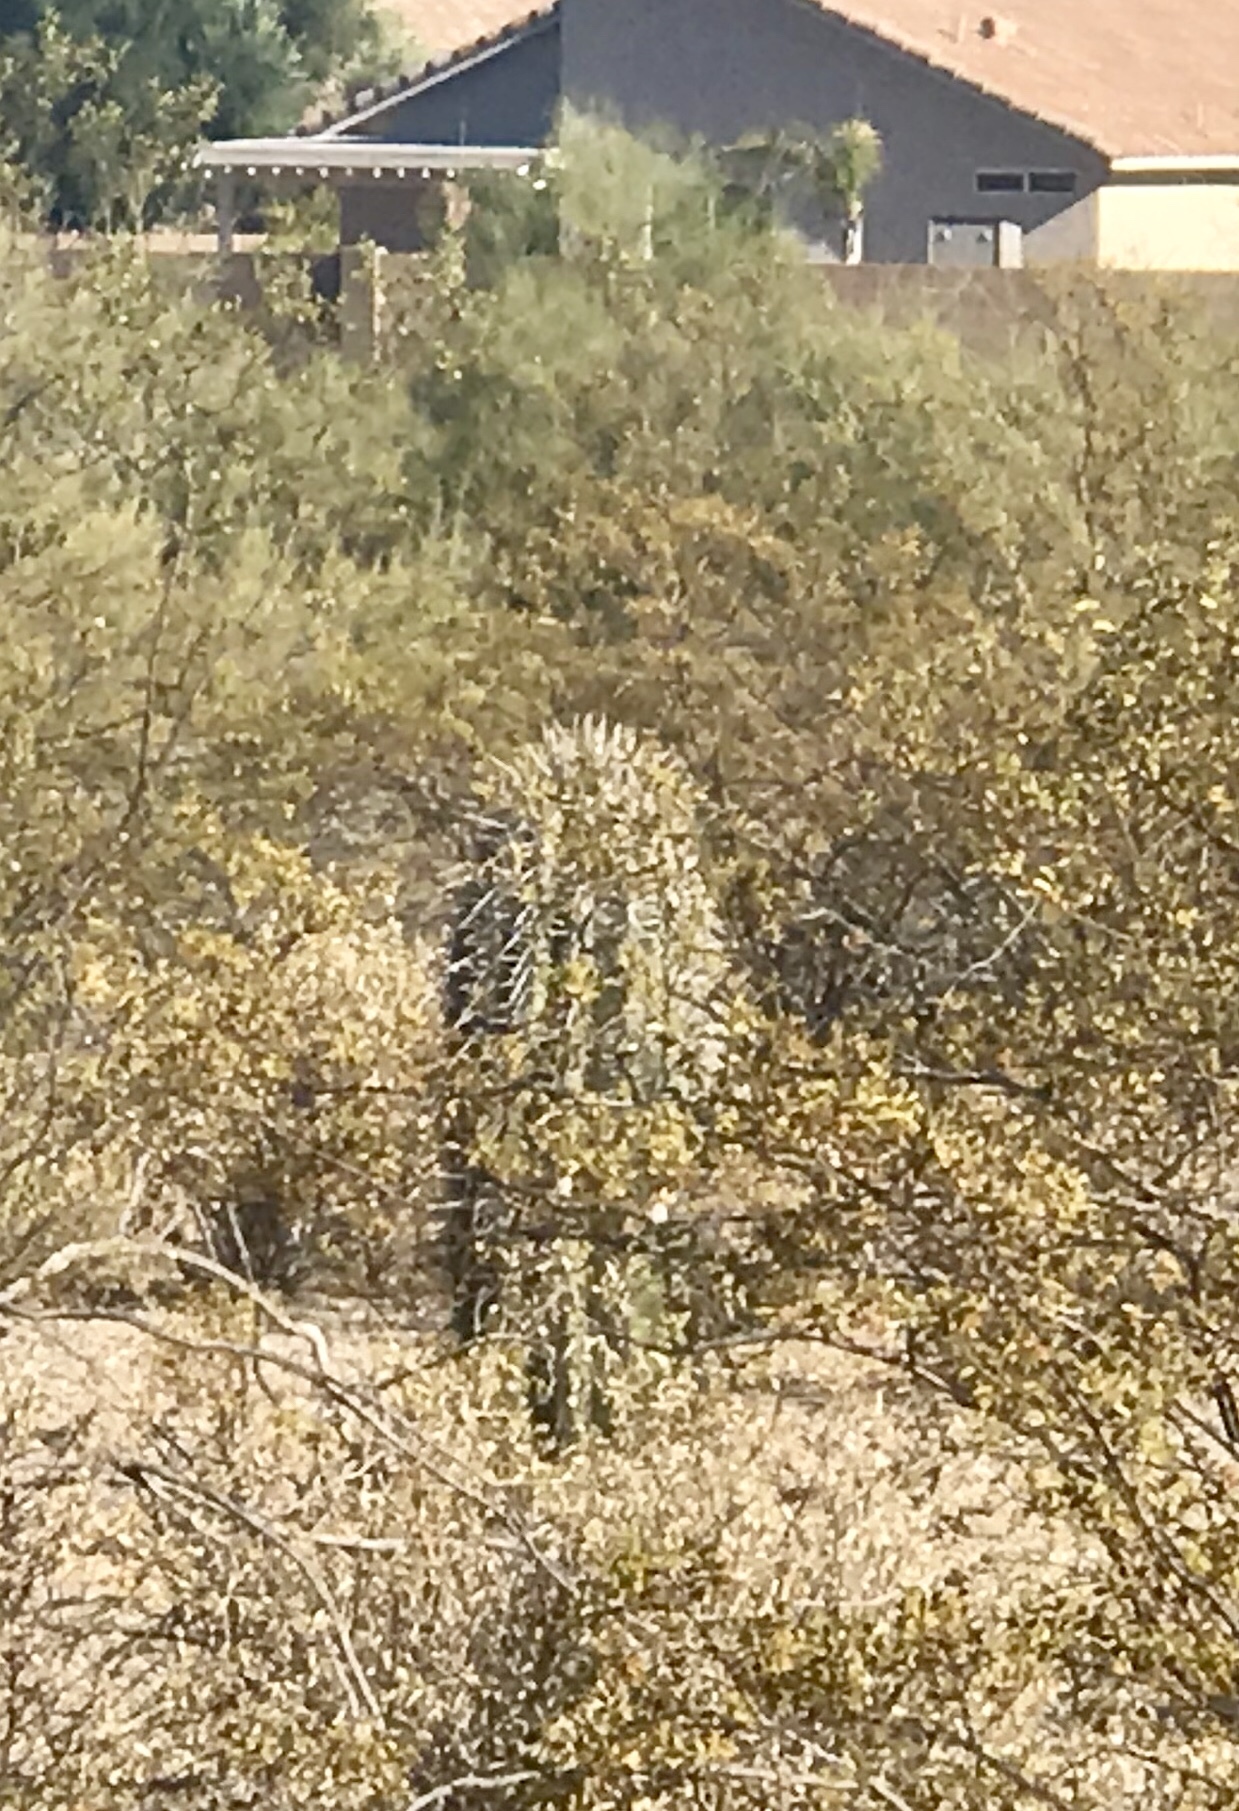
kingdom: Plantae
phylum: Tracheophyta
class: Magnoliopsida
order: Caryophyllales
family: Cactaceae
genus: Carnegiea
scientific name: Carnegiea gigantea
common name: Saguaro
